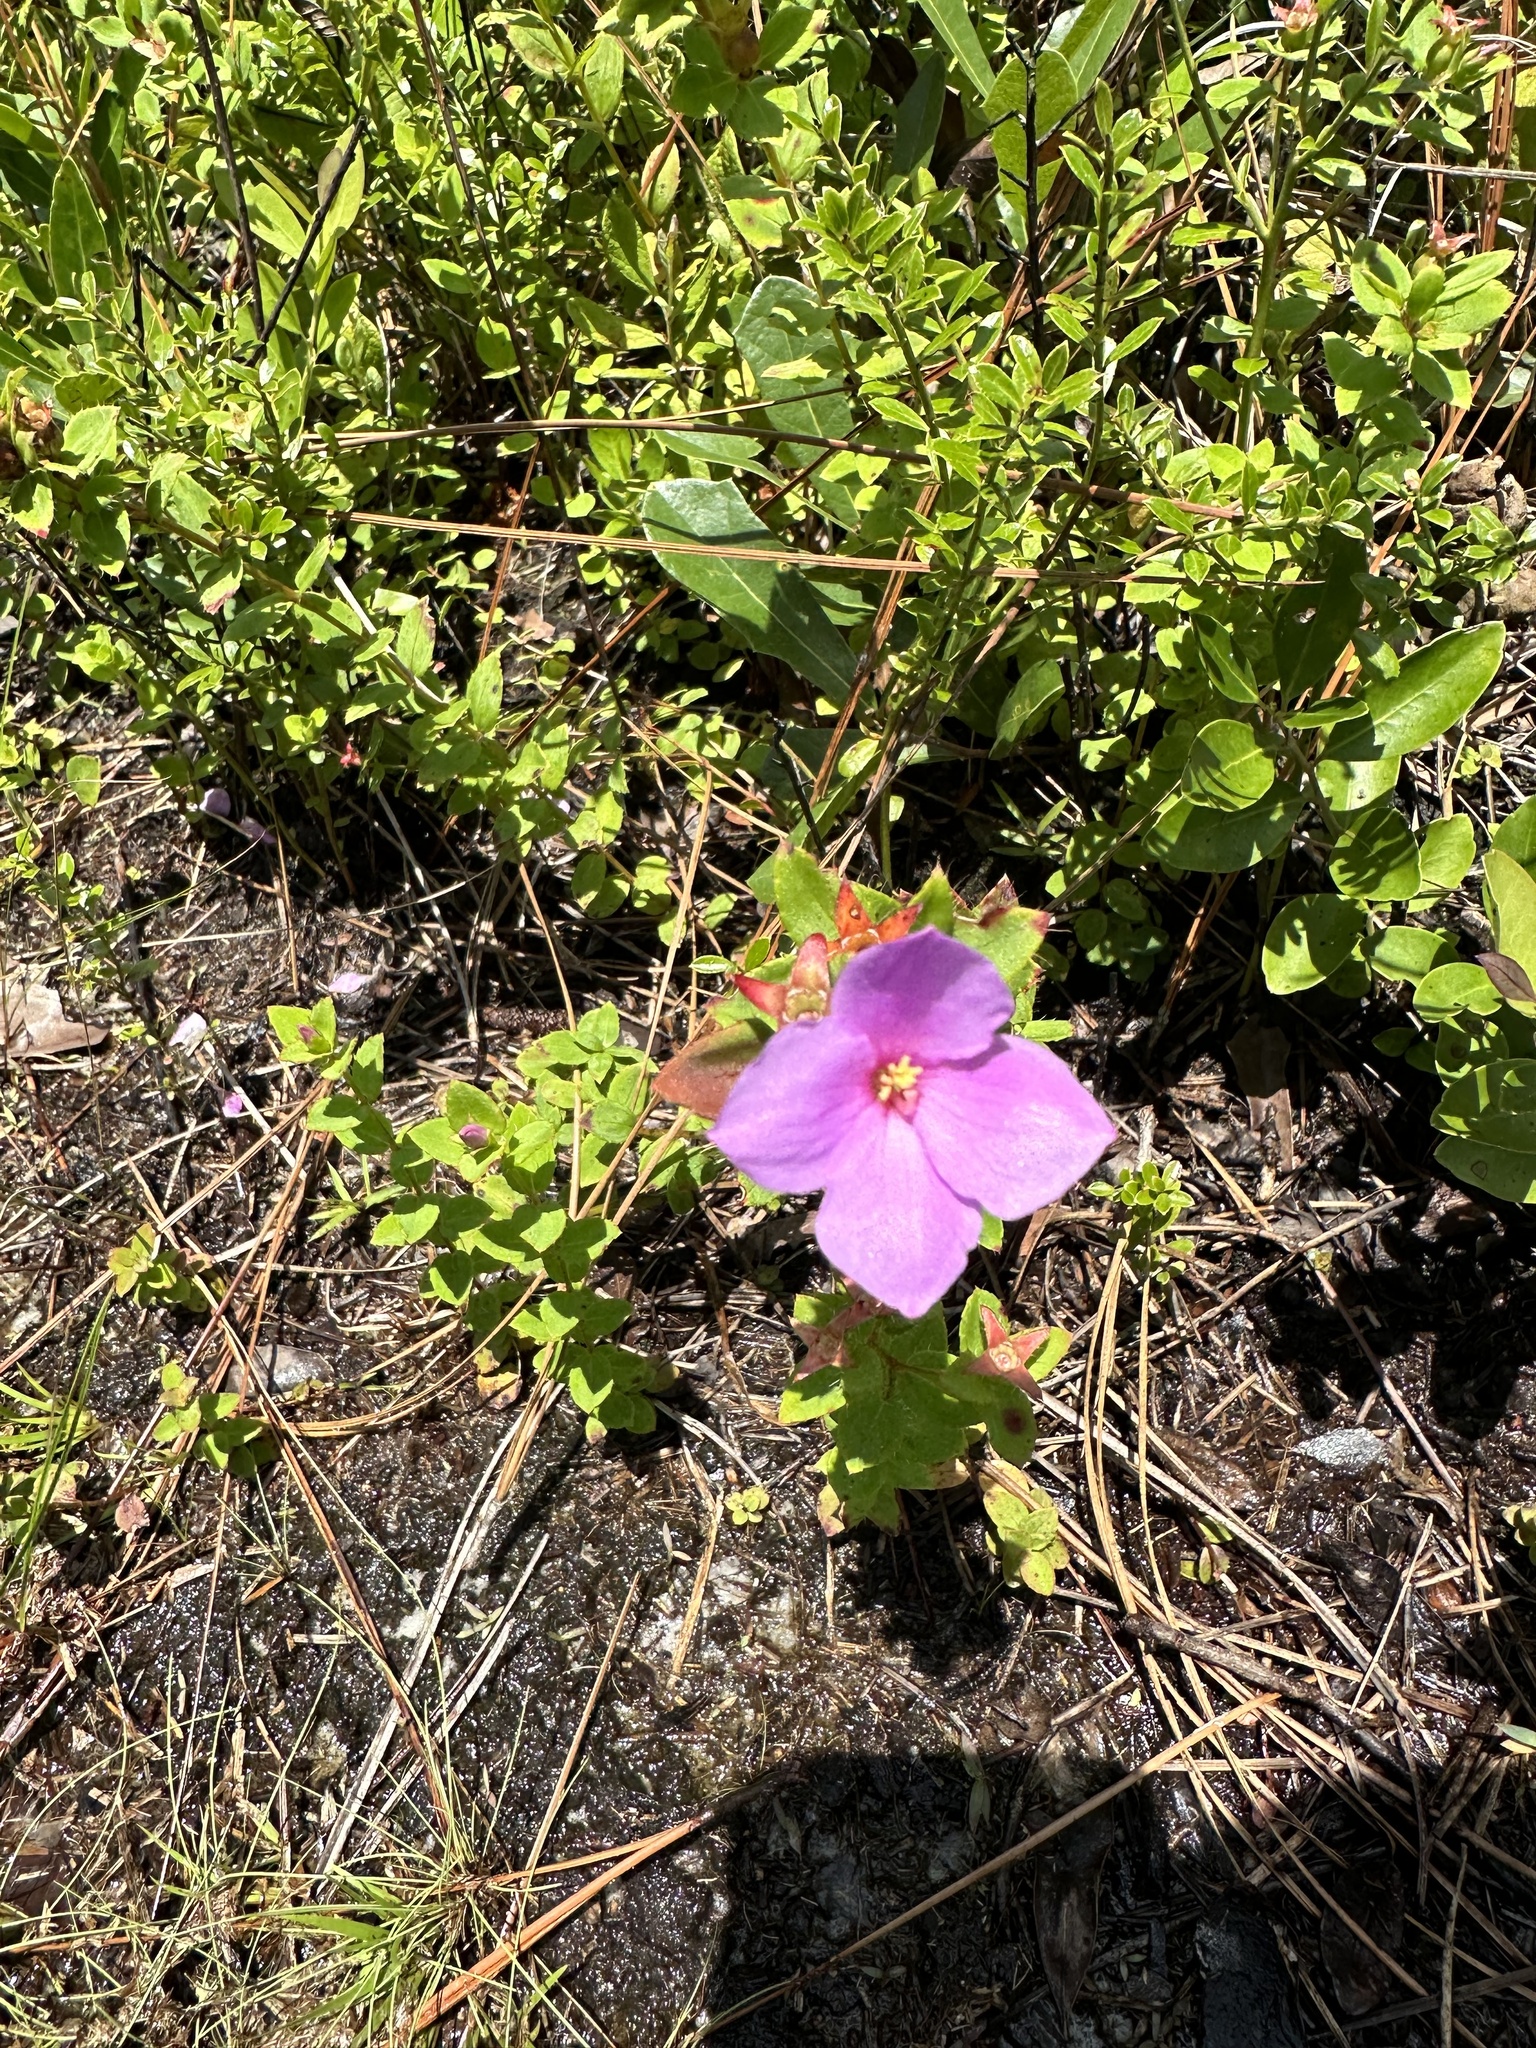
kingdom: Plantae
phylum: Tracheophyta
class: Magnoliopsida
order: Myrtales
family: Melastomataceae
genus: Rhexia
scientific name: Rhexia petiolata
